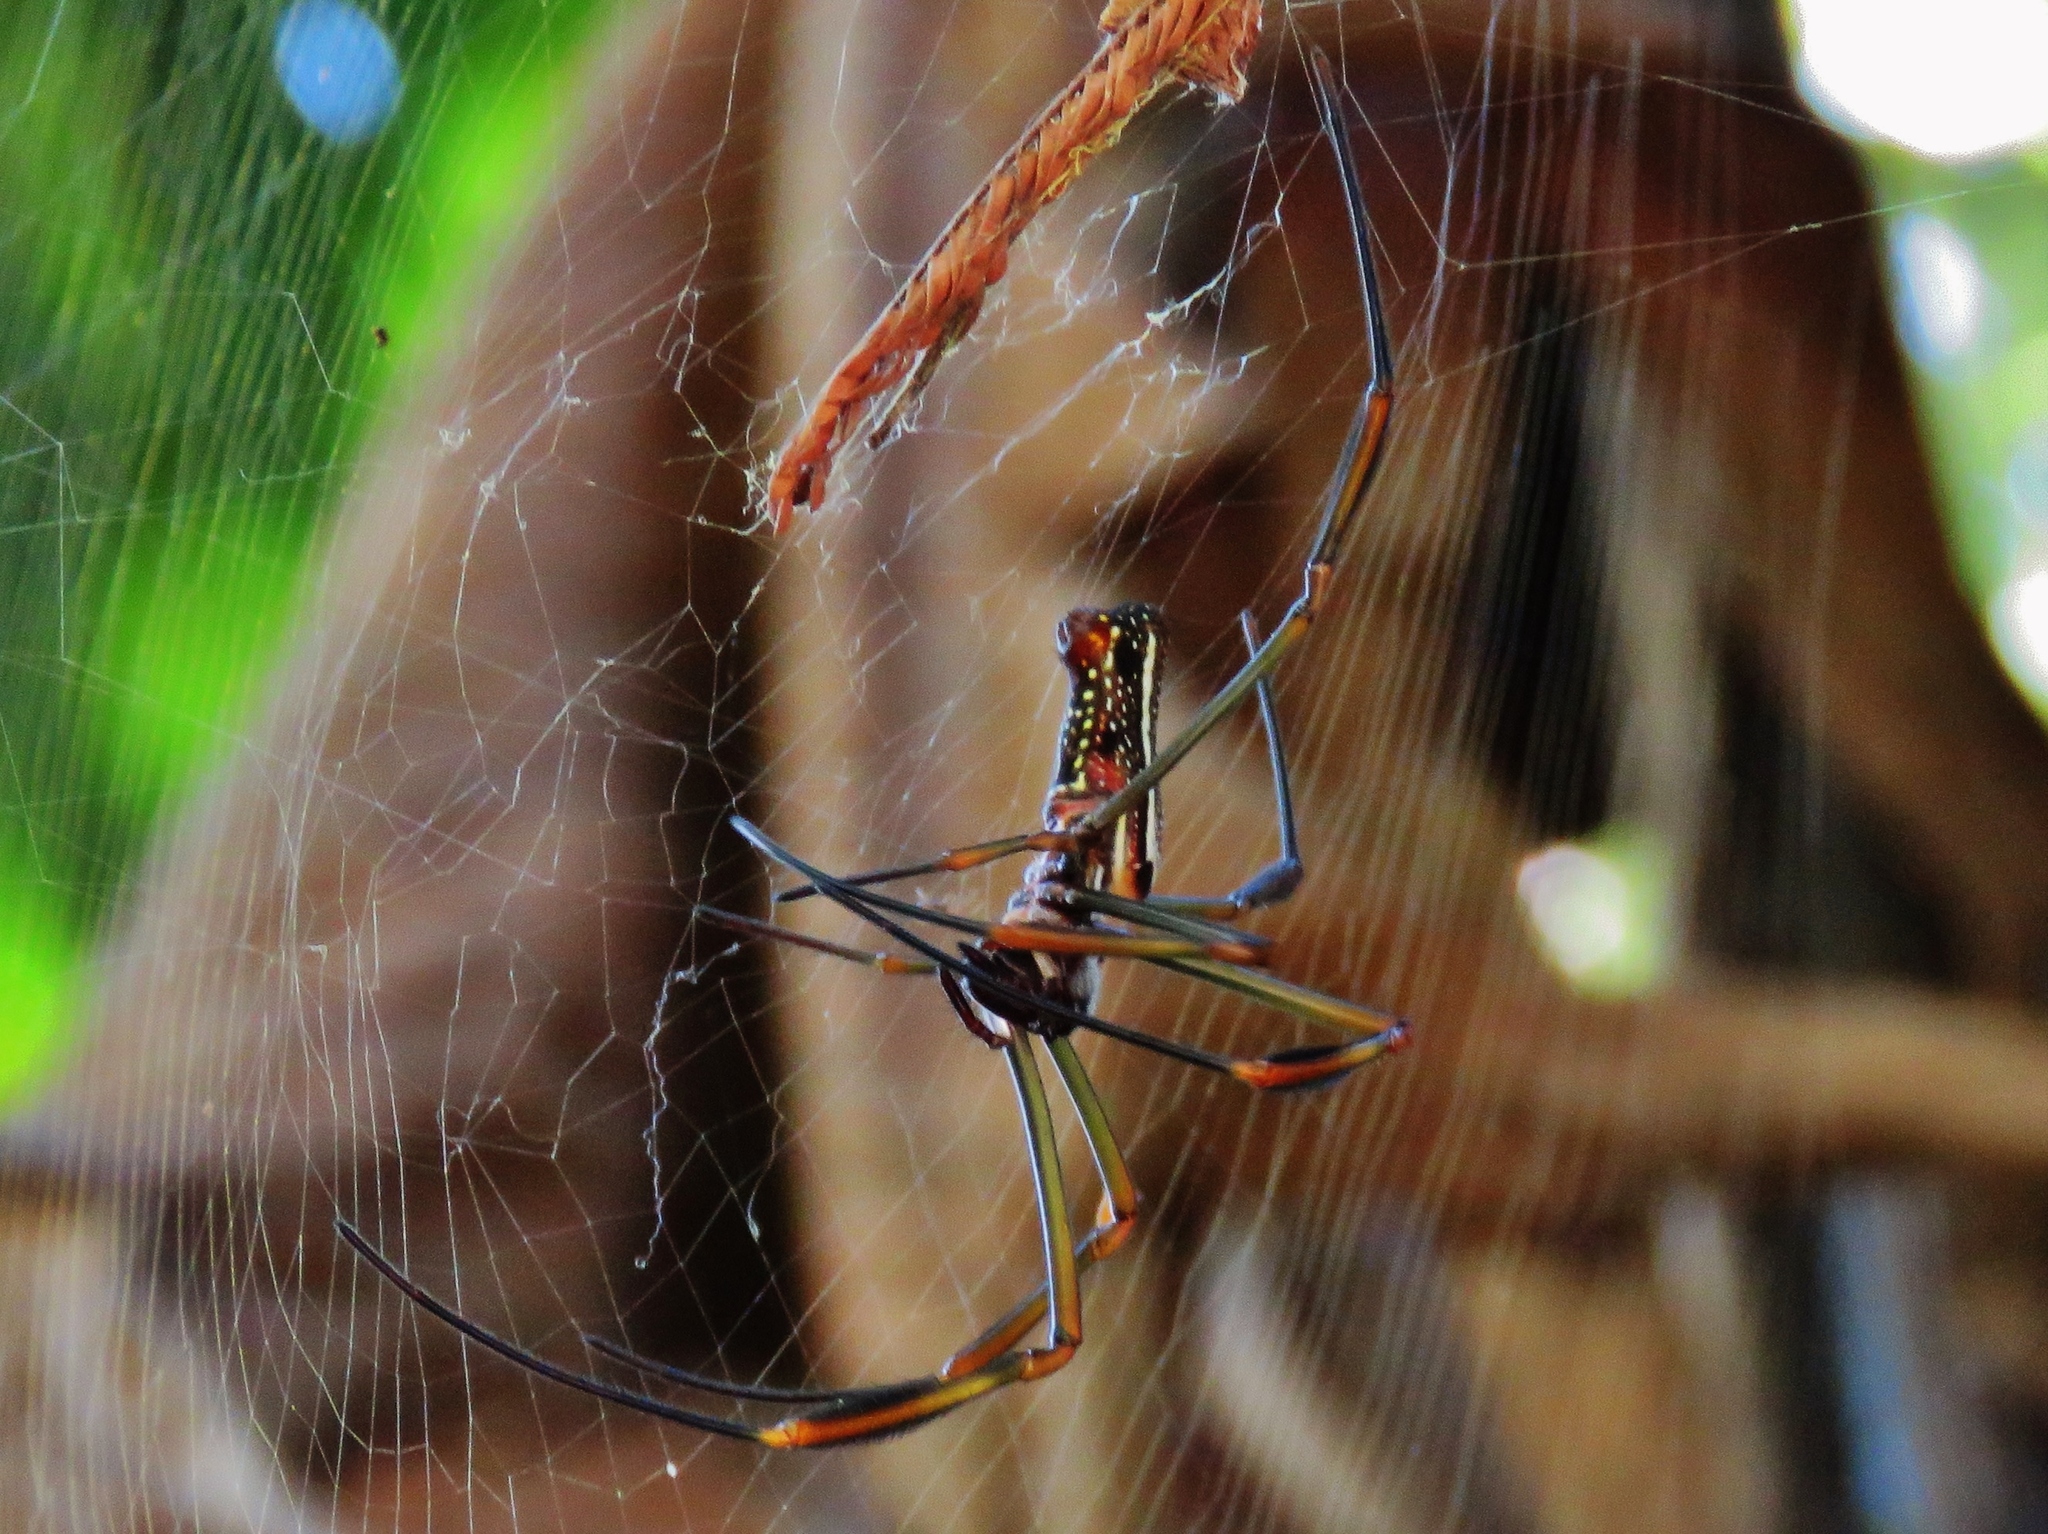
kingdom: Animalia
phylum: Arthropoda
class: Arachnida
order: Araneae
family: Araneidae
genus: Trichonephila
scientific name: Trichonephila clavipes
